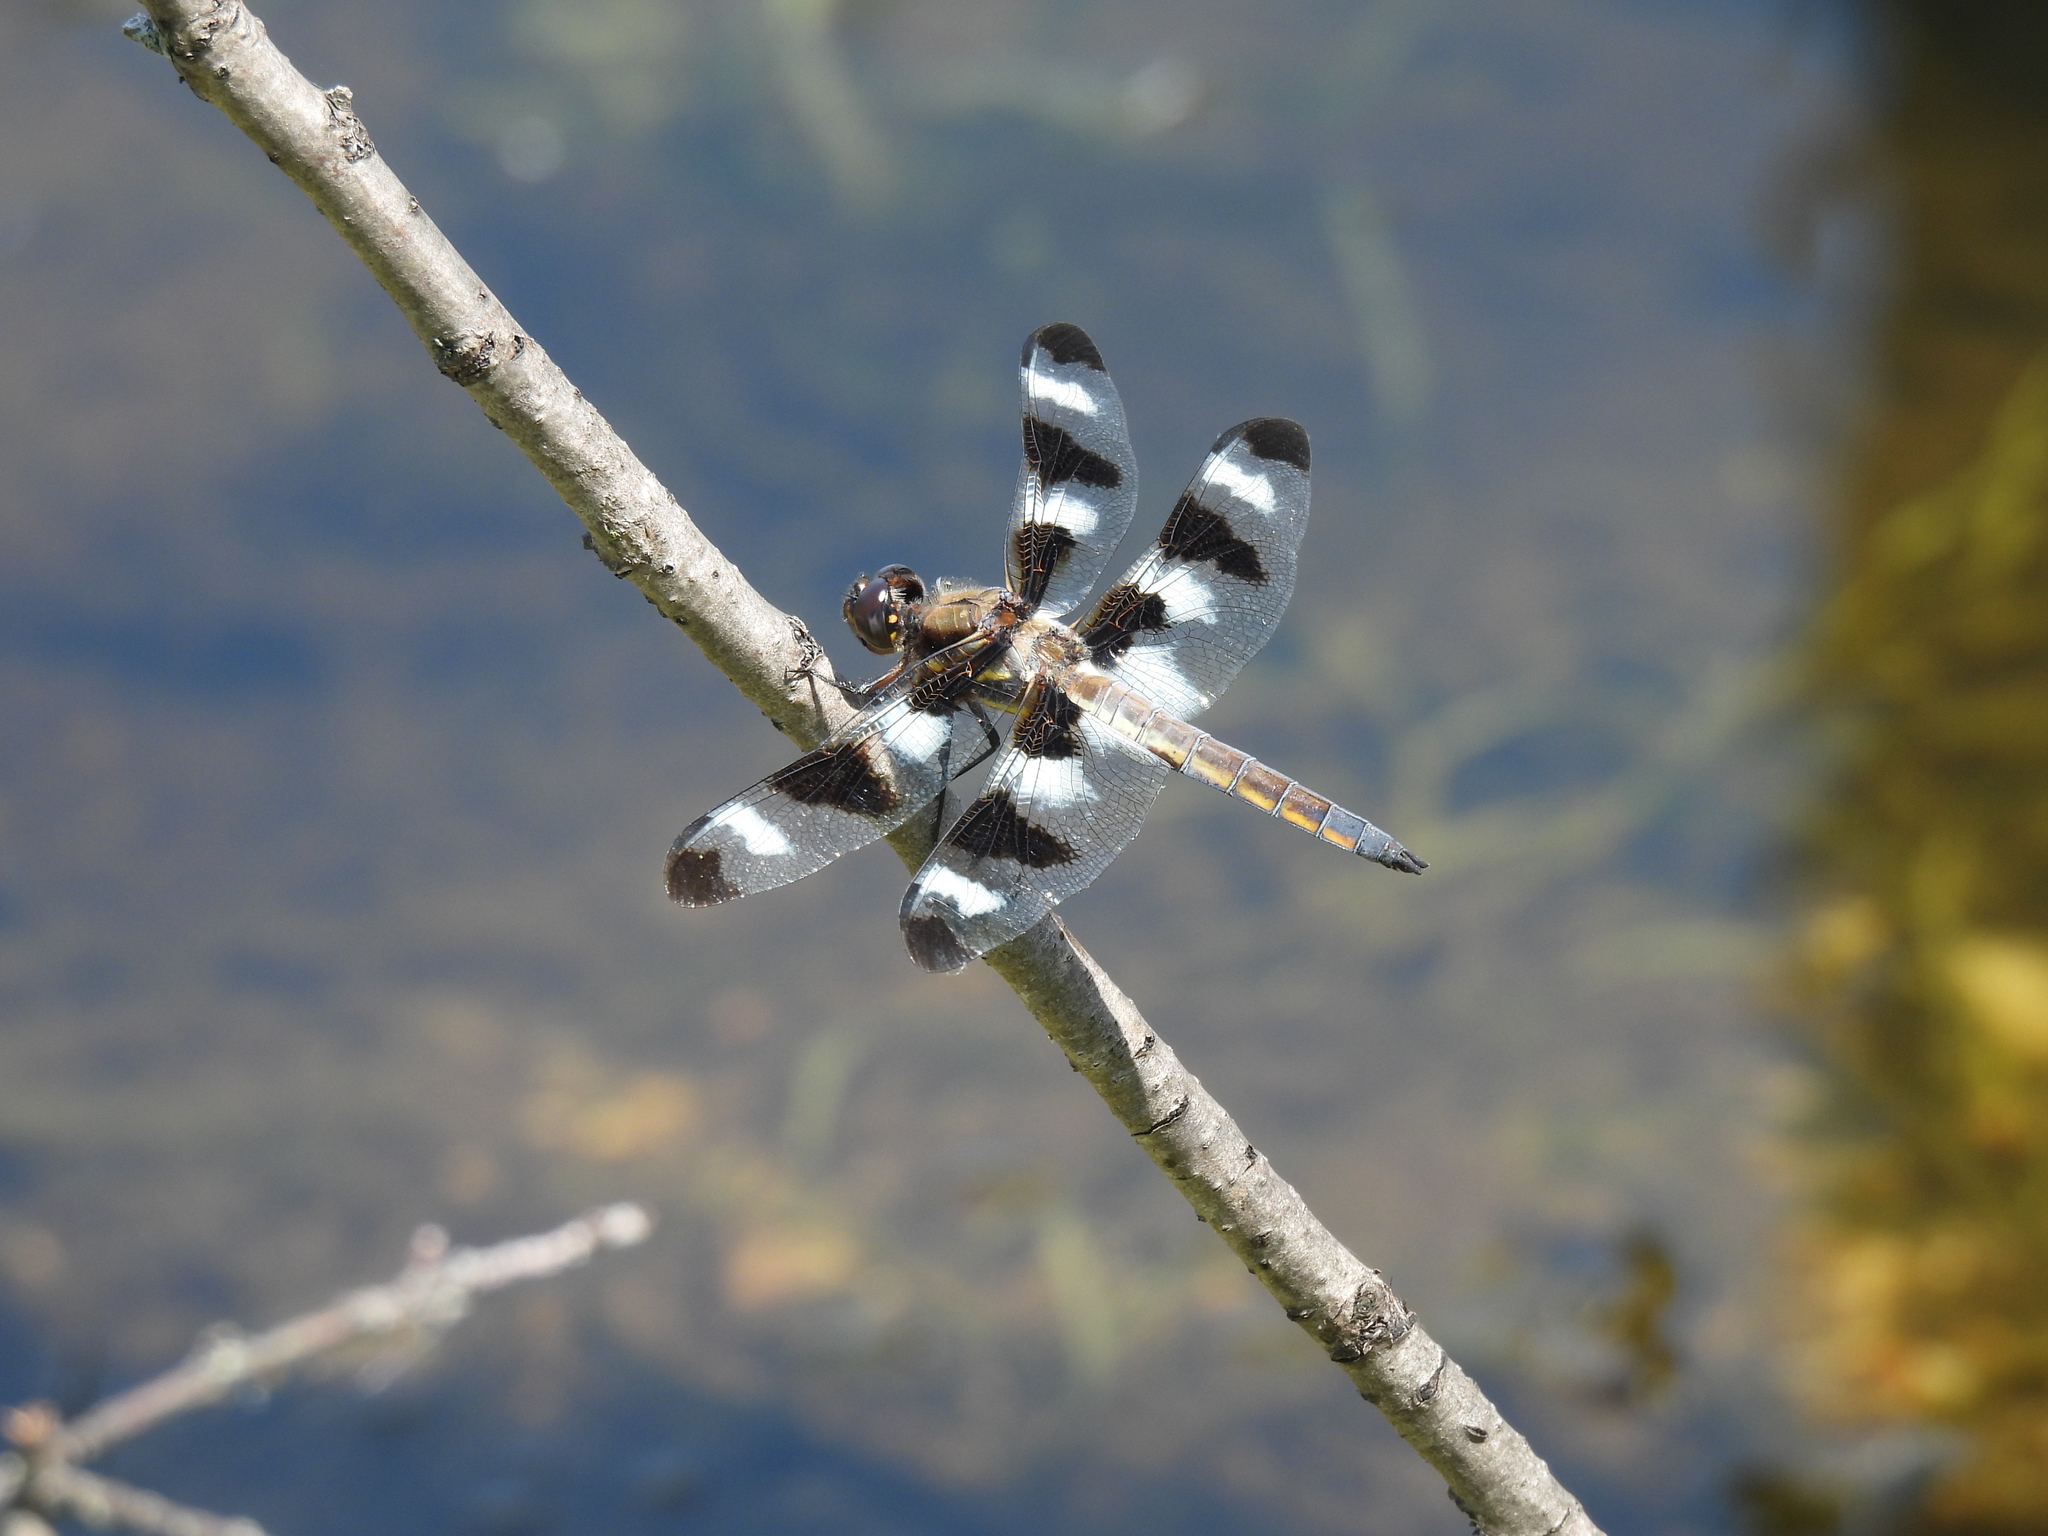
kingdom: Animalia
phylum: Arthropoda
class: Insecta
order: Odonata
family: Libellulidae
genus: Libellula
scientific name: Libellula pulchella
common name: Twelve-spotted skimmer
